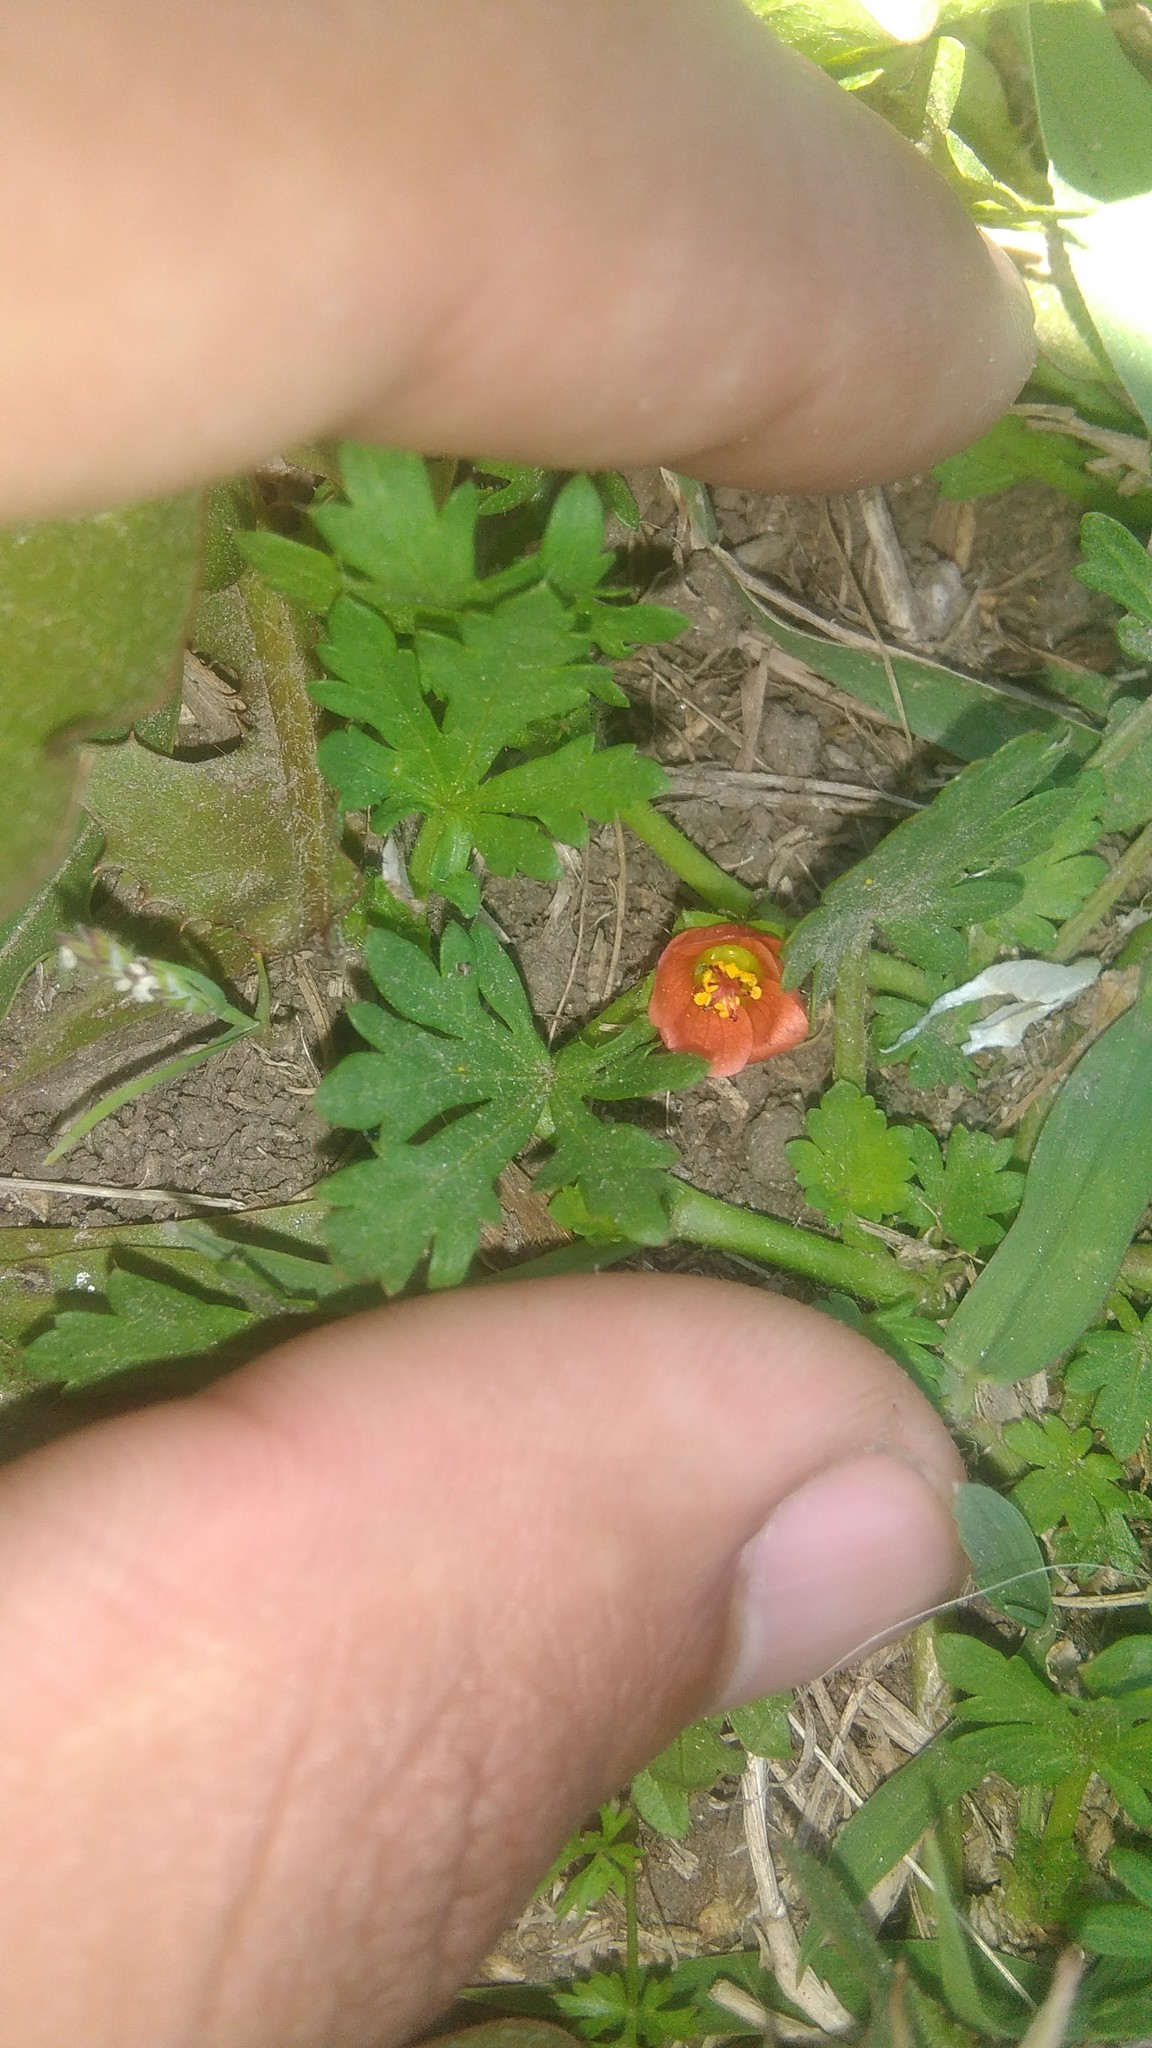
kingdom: Plantae
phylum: Tracheophyta
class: Magnoliopsida
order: Malvales
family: Malvaceae
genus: Modiola
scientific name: Modiola caroliniana
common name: Carolina bristlemallow
